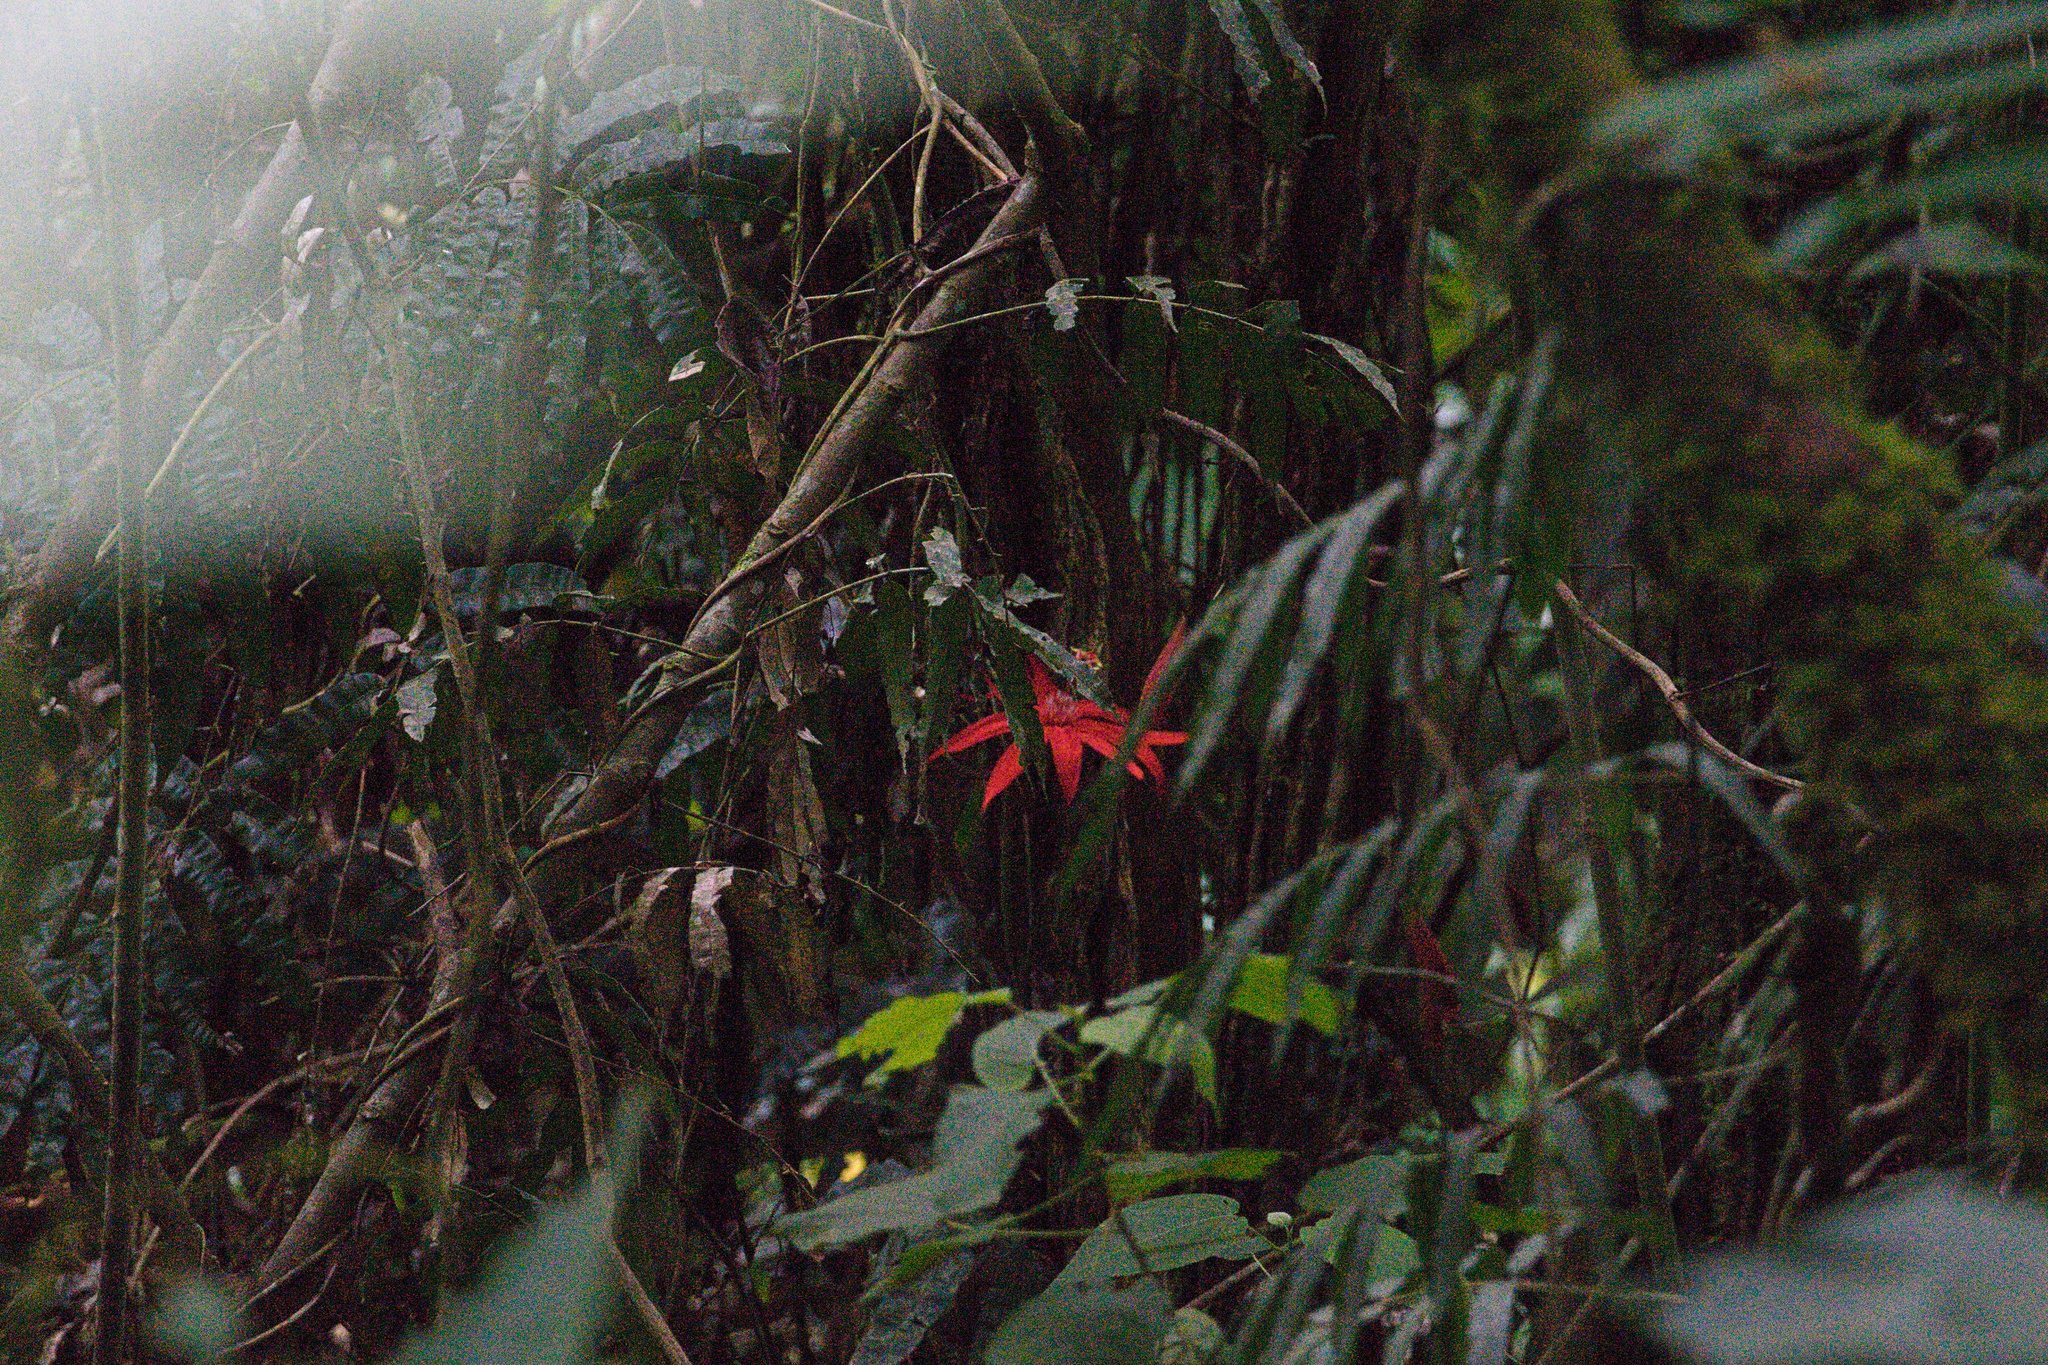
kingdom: Plantae
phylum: Tracheophyta
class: Magnoliopsida
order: Malpighiales
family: Passifloraceae
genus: Passiflora
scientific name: Passiflora vitifolia
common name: Perfumed passionflower
